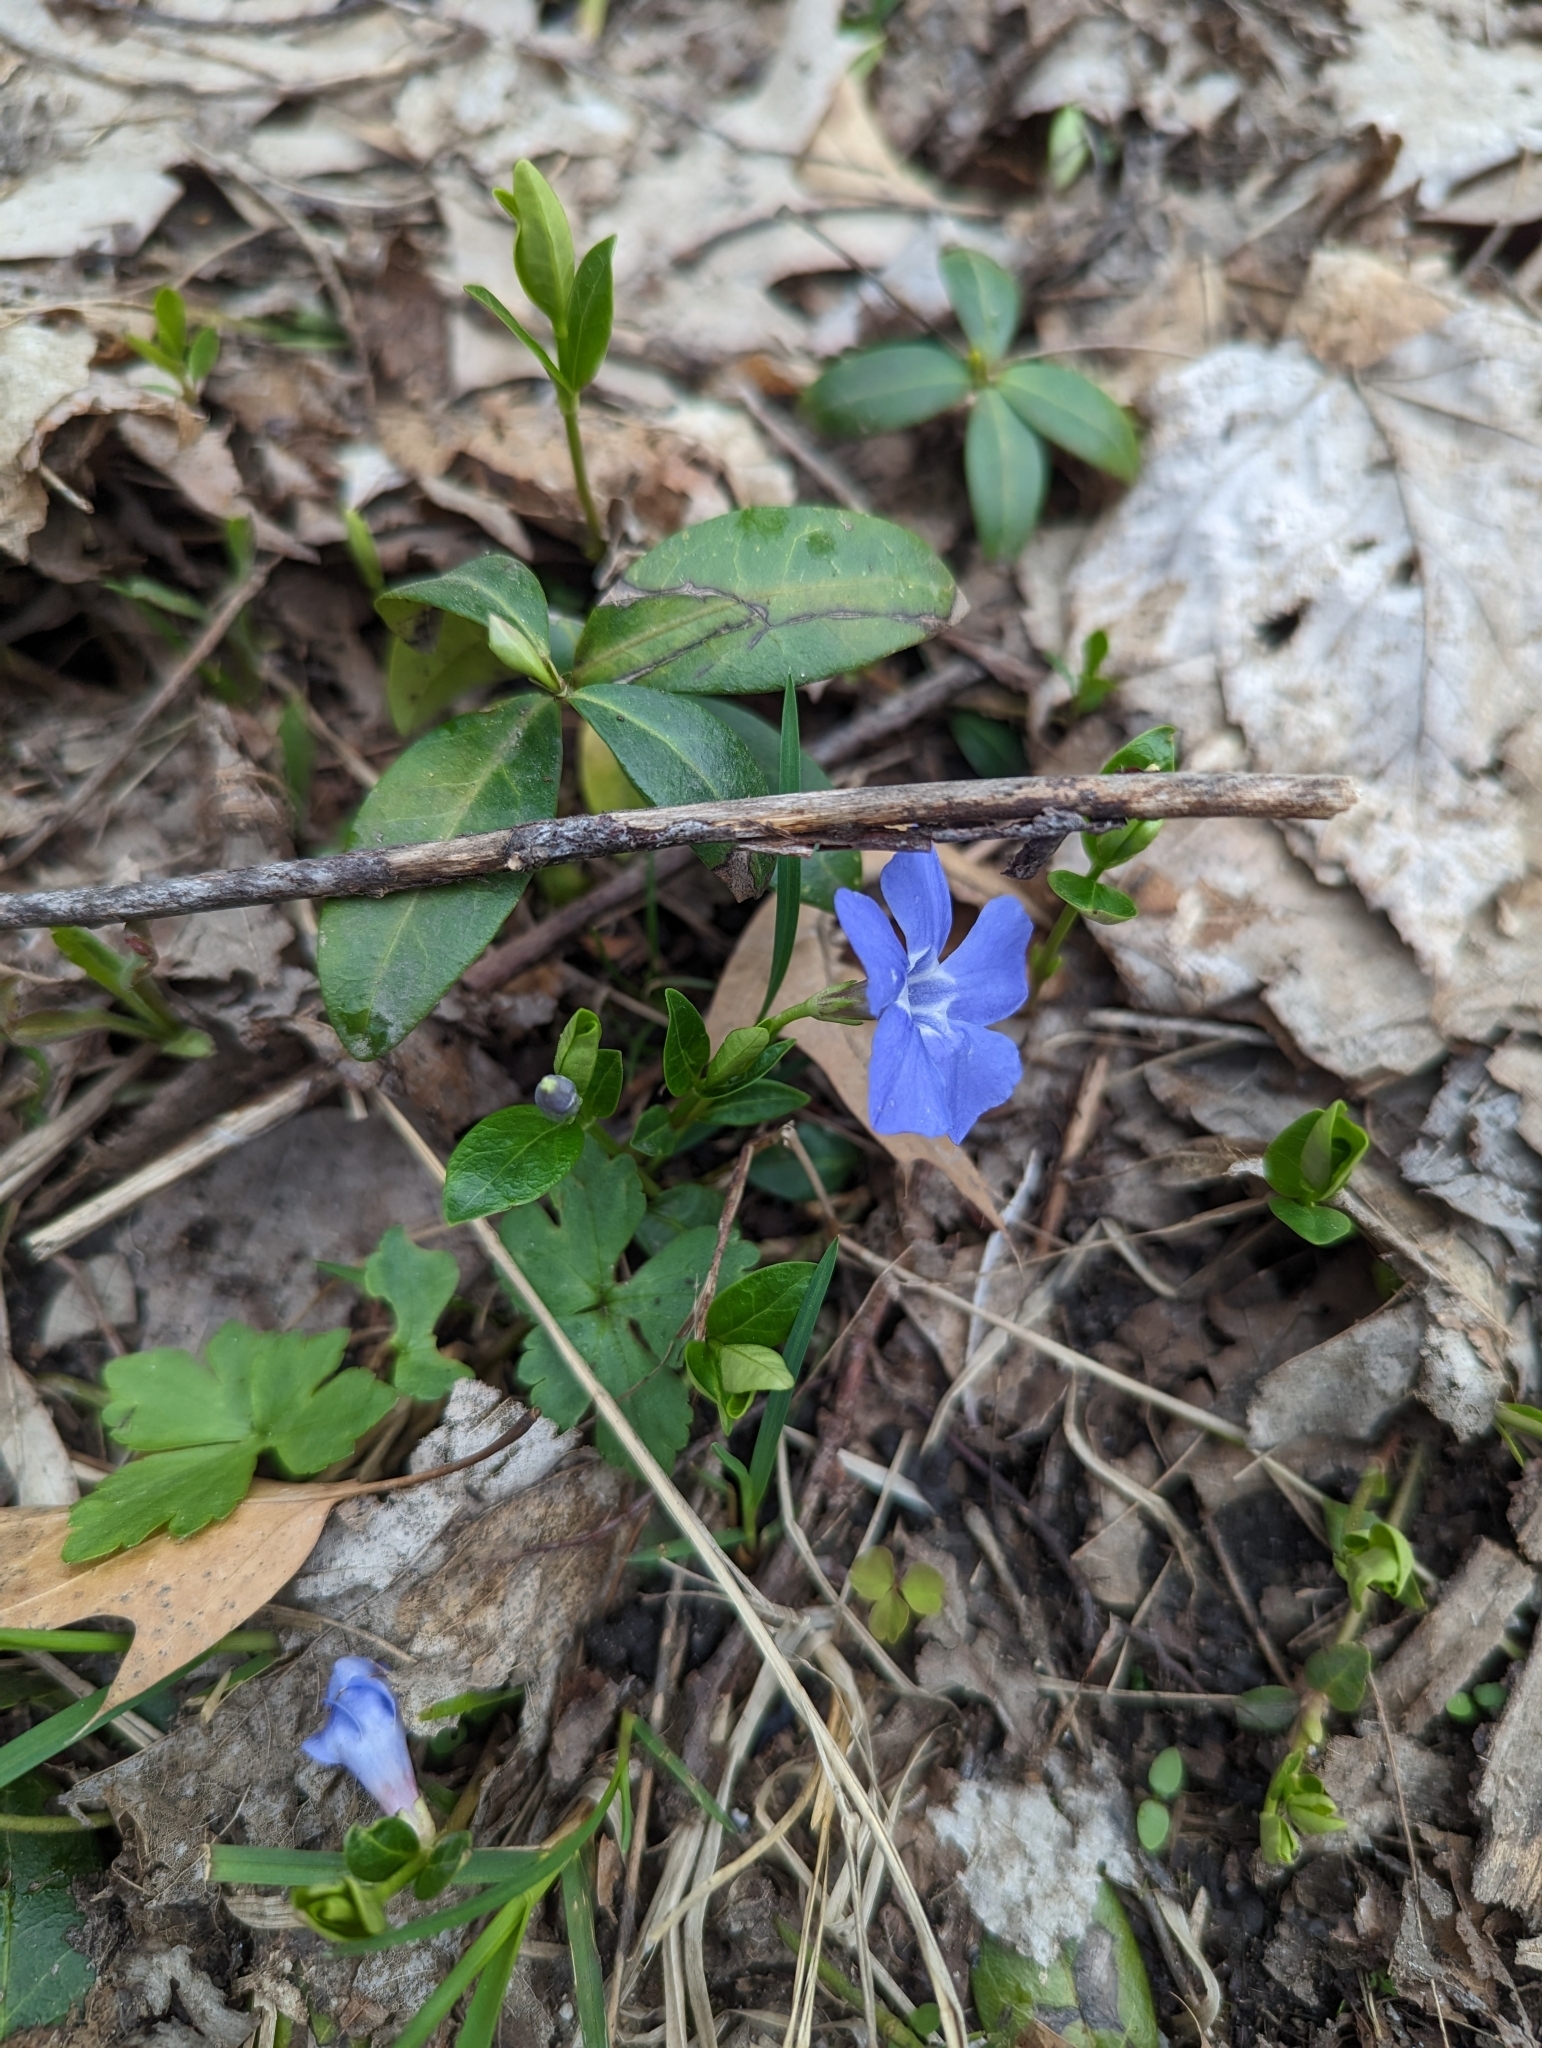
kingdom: Plantae
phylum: Tracheophyta
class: Magnoliopsida
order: Gentianales
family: Apocynaceae
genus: Vinca
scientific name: Vinca minor
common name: Lesser periwinkle
